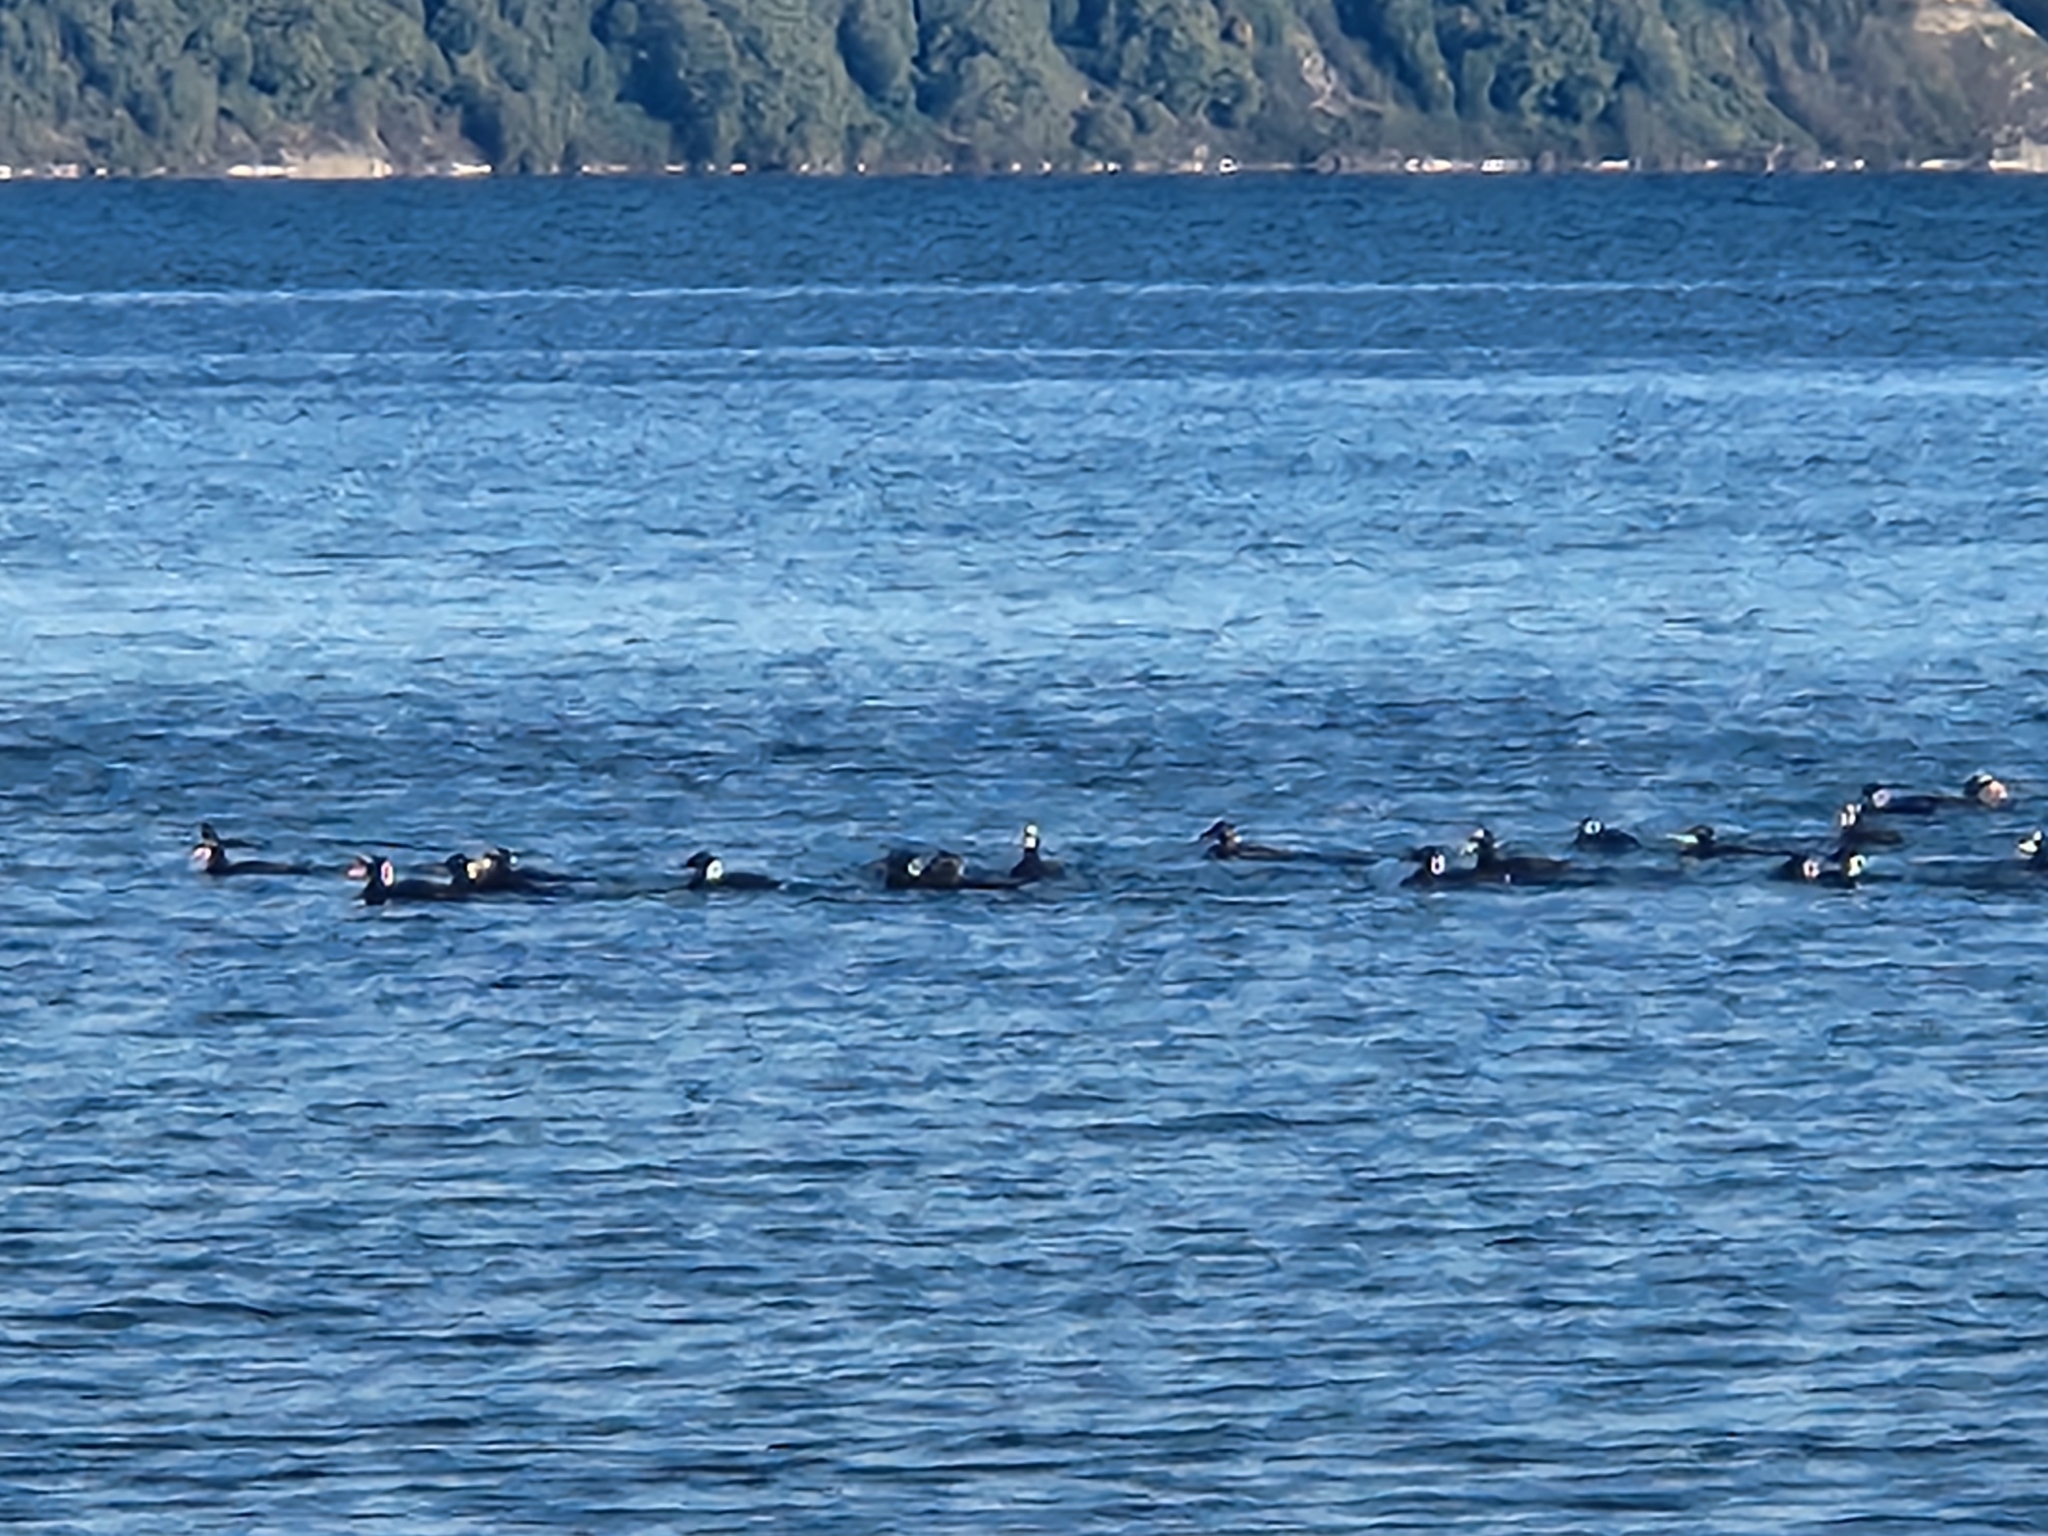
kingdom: Animalia
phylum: Chordata
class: Aves
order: Anseriformes
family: Anatidae
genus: Melanitta
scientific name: Melanitta perspicillata
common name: Surf scoter
